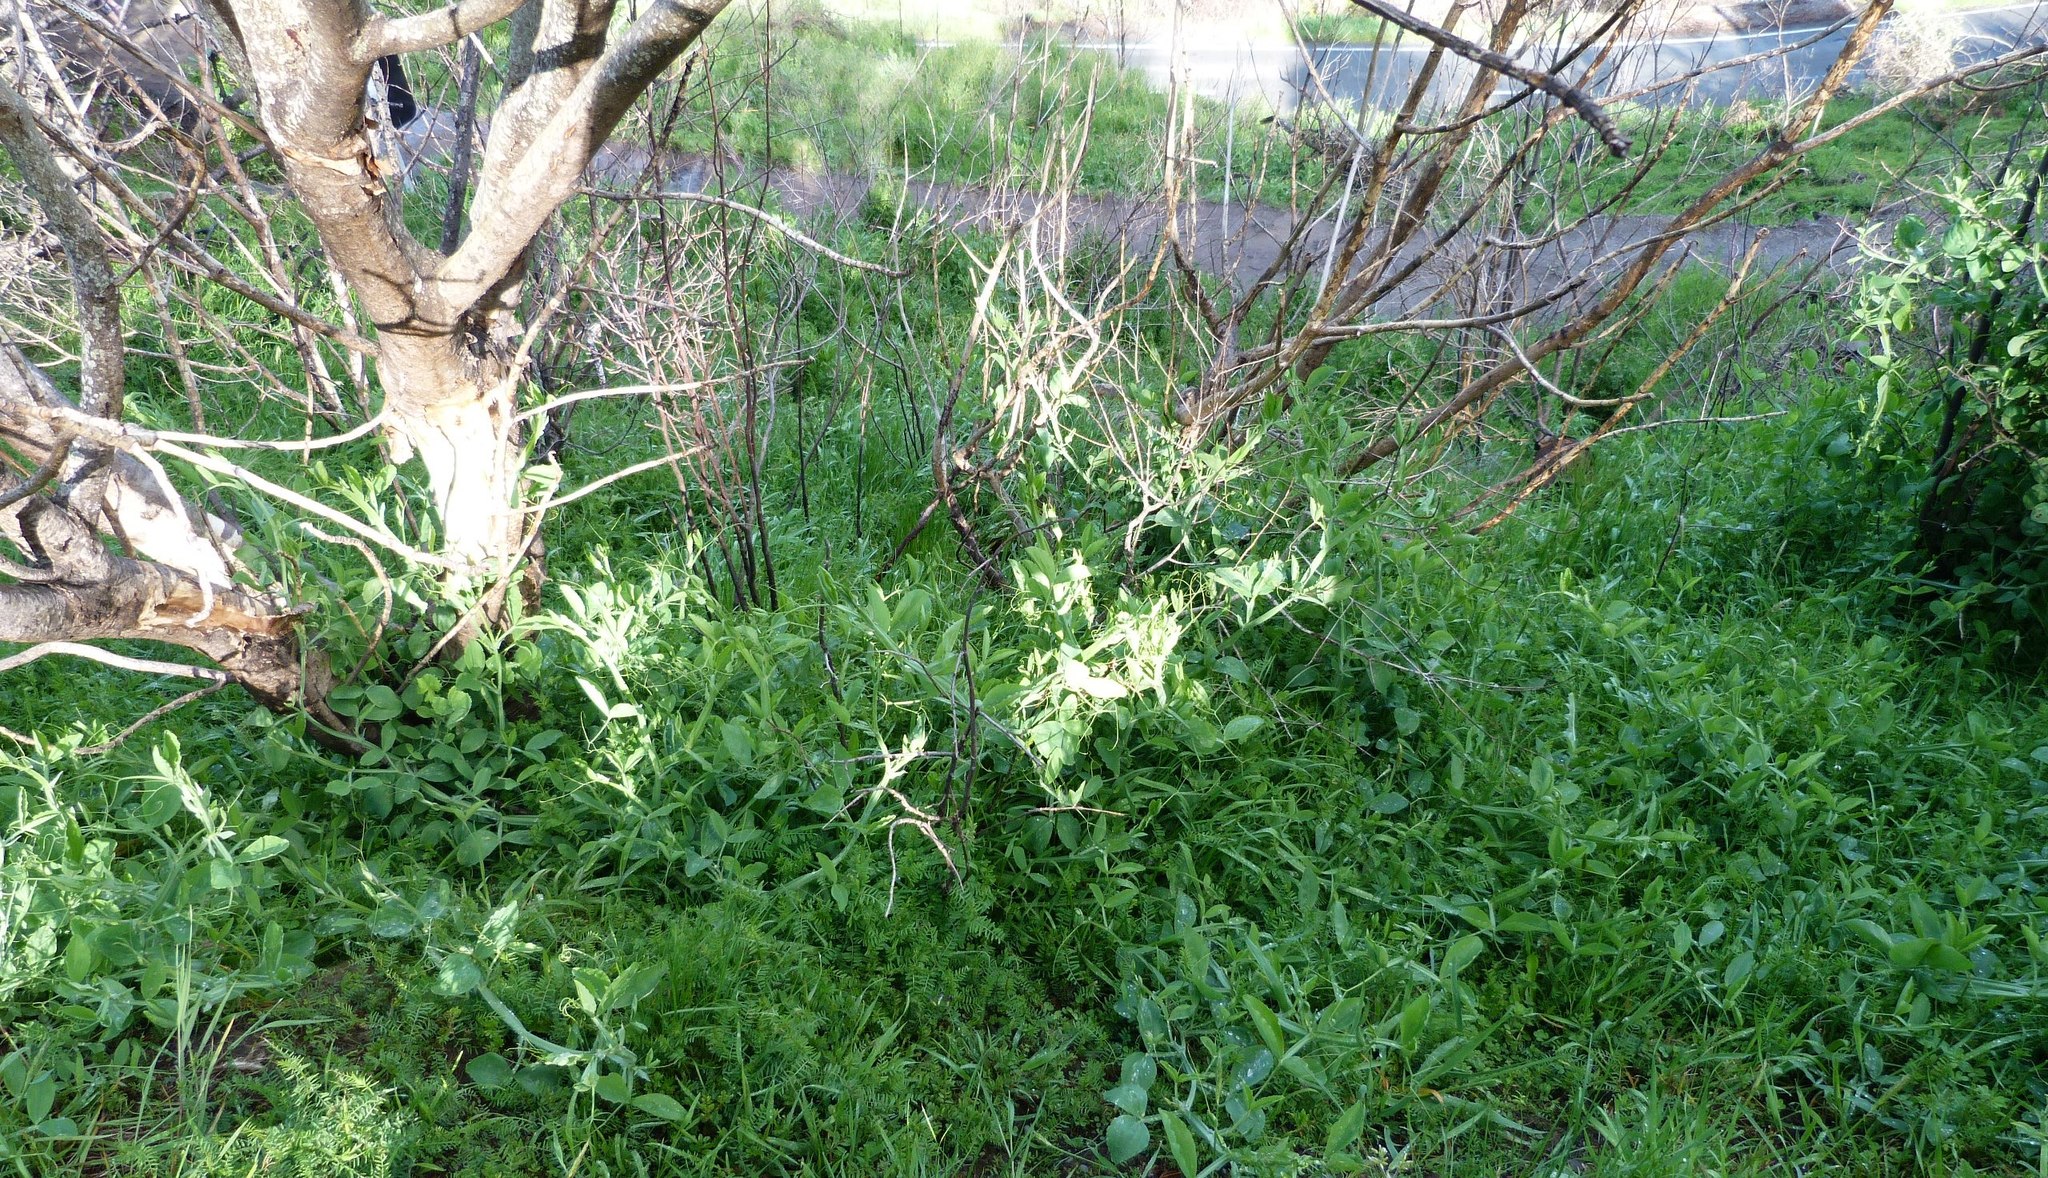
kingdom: Plantae
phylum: Tracheophyta
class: Magnoliopsida
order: Fabales
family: Fabaceae
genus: Lathyrus
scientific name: Lathyrus latifolius
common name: Perennial pea
